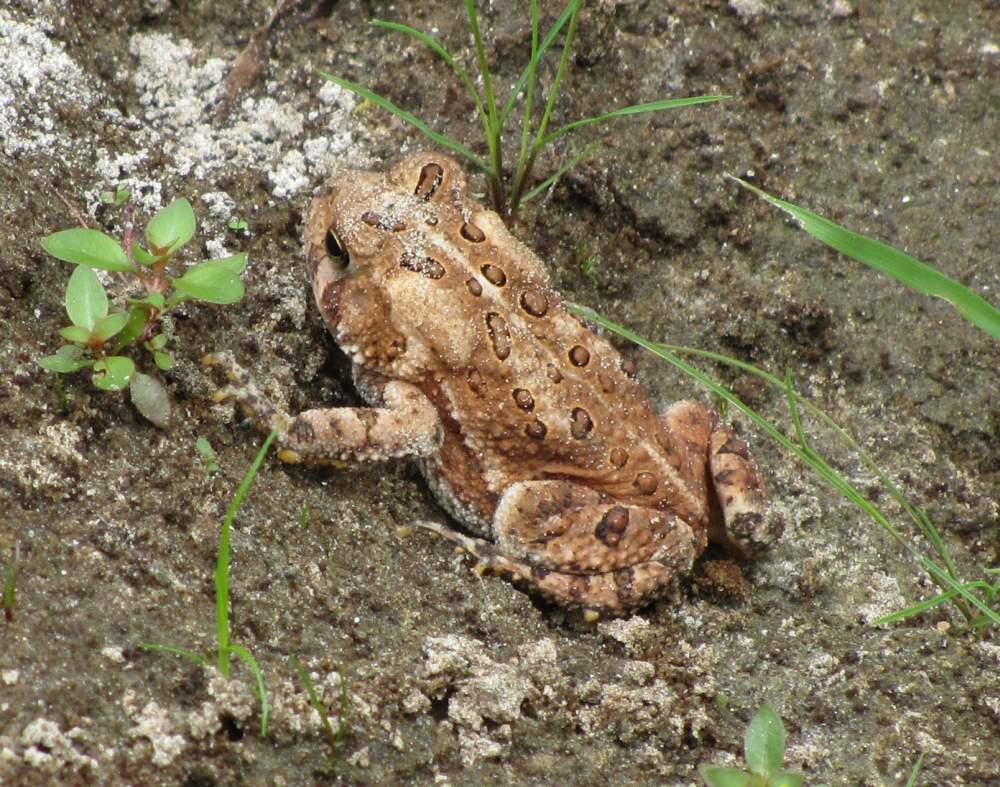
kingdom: Animalia
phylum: Chordata
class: Amphibia
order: Anura
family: Bufonidae
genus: Anaxyrus
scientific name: Anaxyrus americanus
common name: American toad
